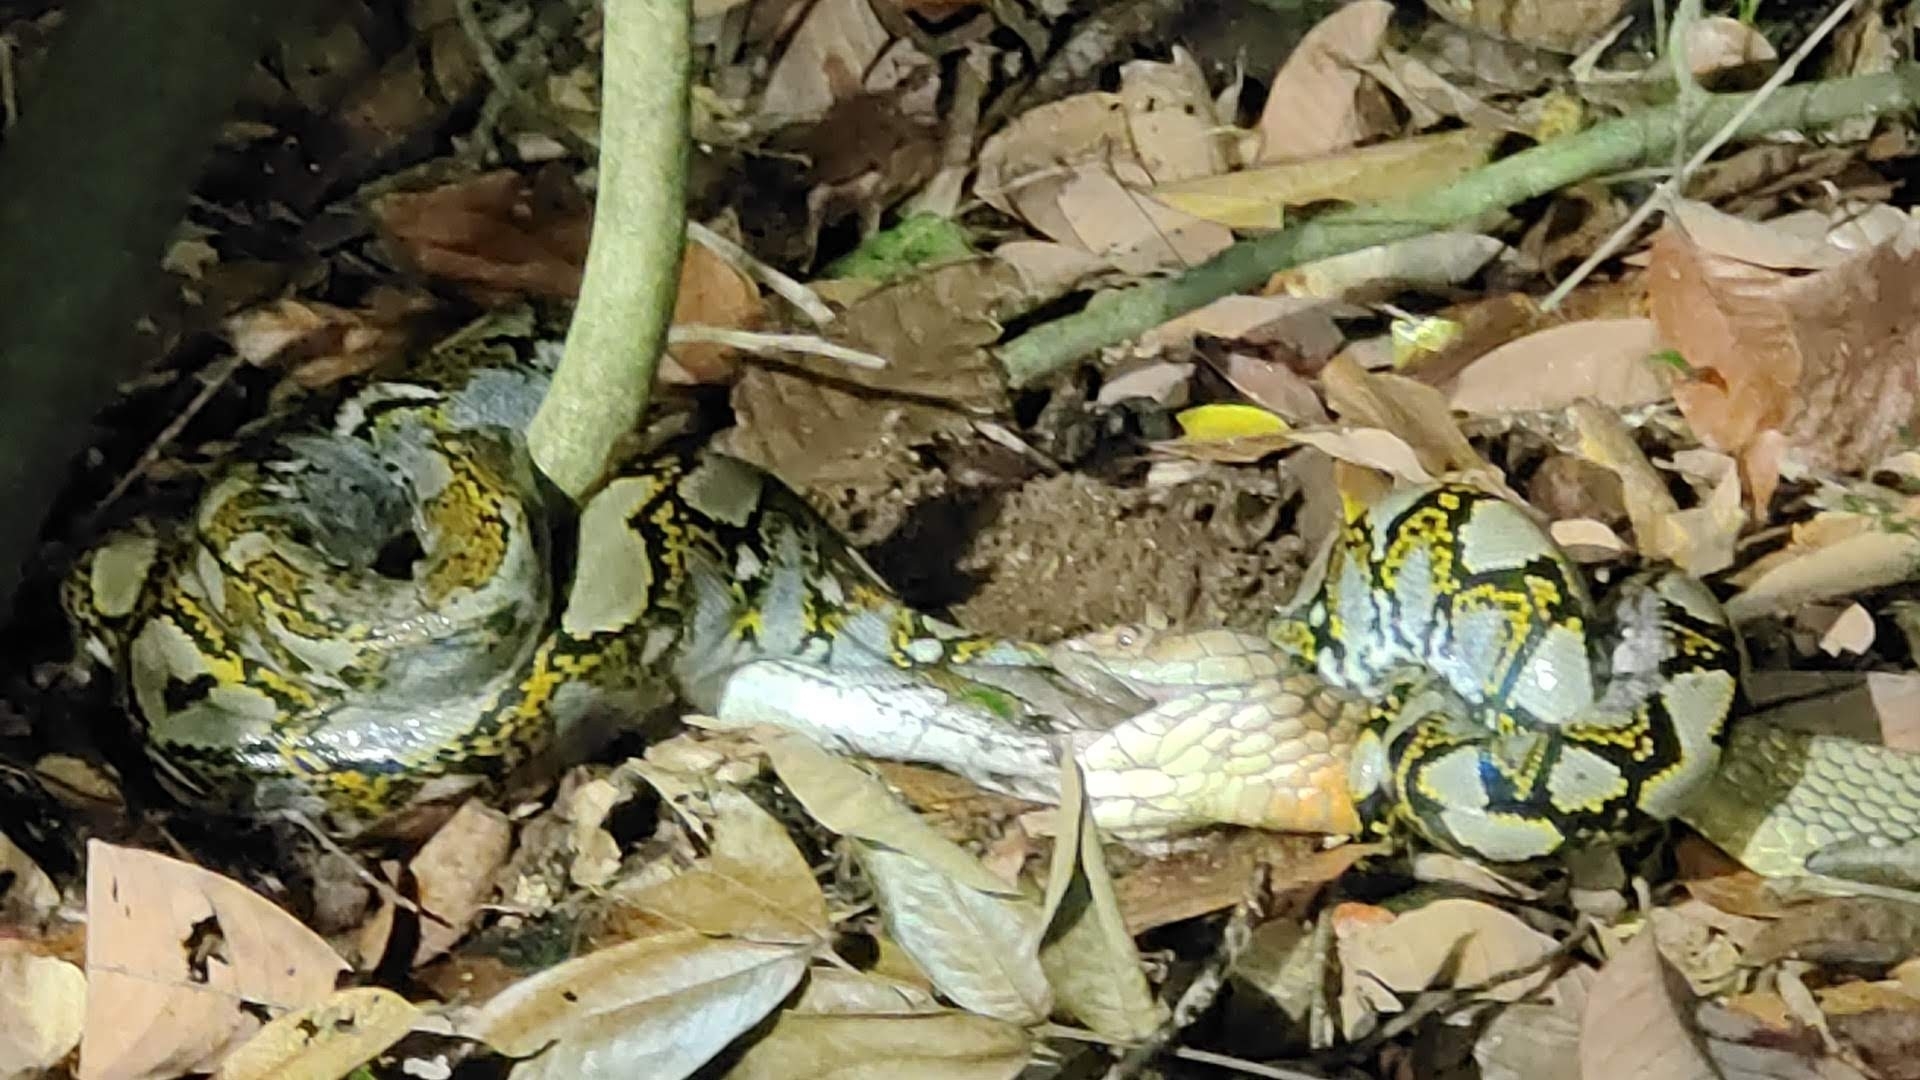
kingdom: Animalia
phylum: Chordata
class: Squamata
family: Pythonidae
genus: Malayopython
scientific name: Malayopython reticulatus
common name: Reticulated python
